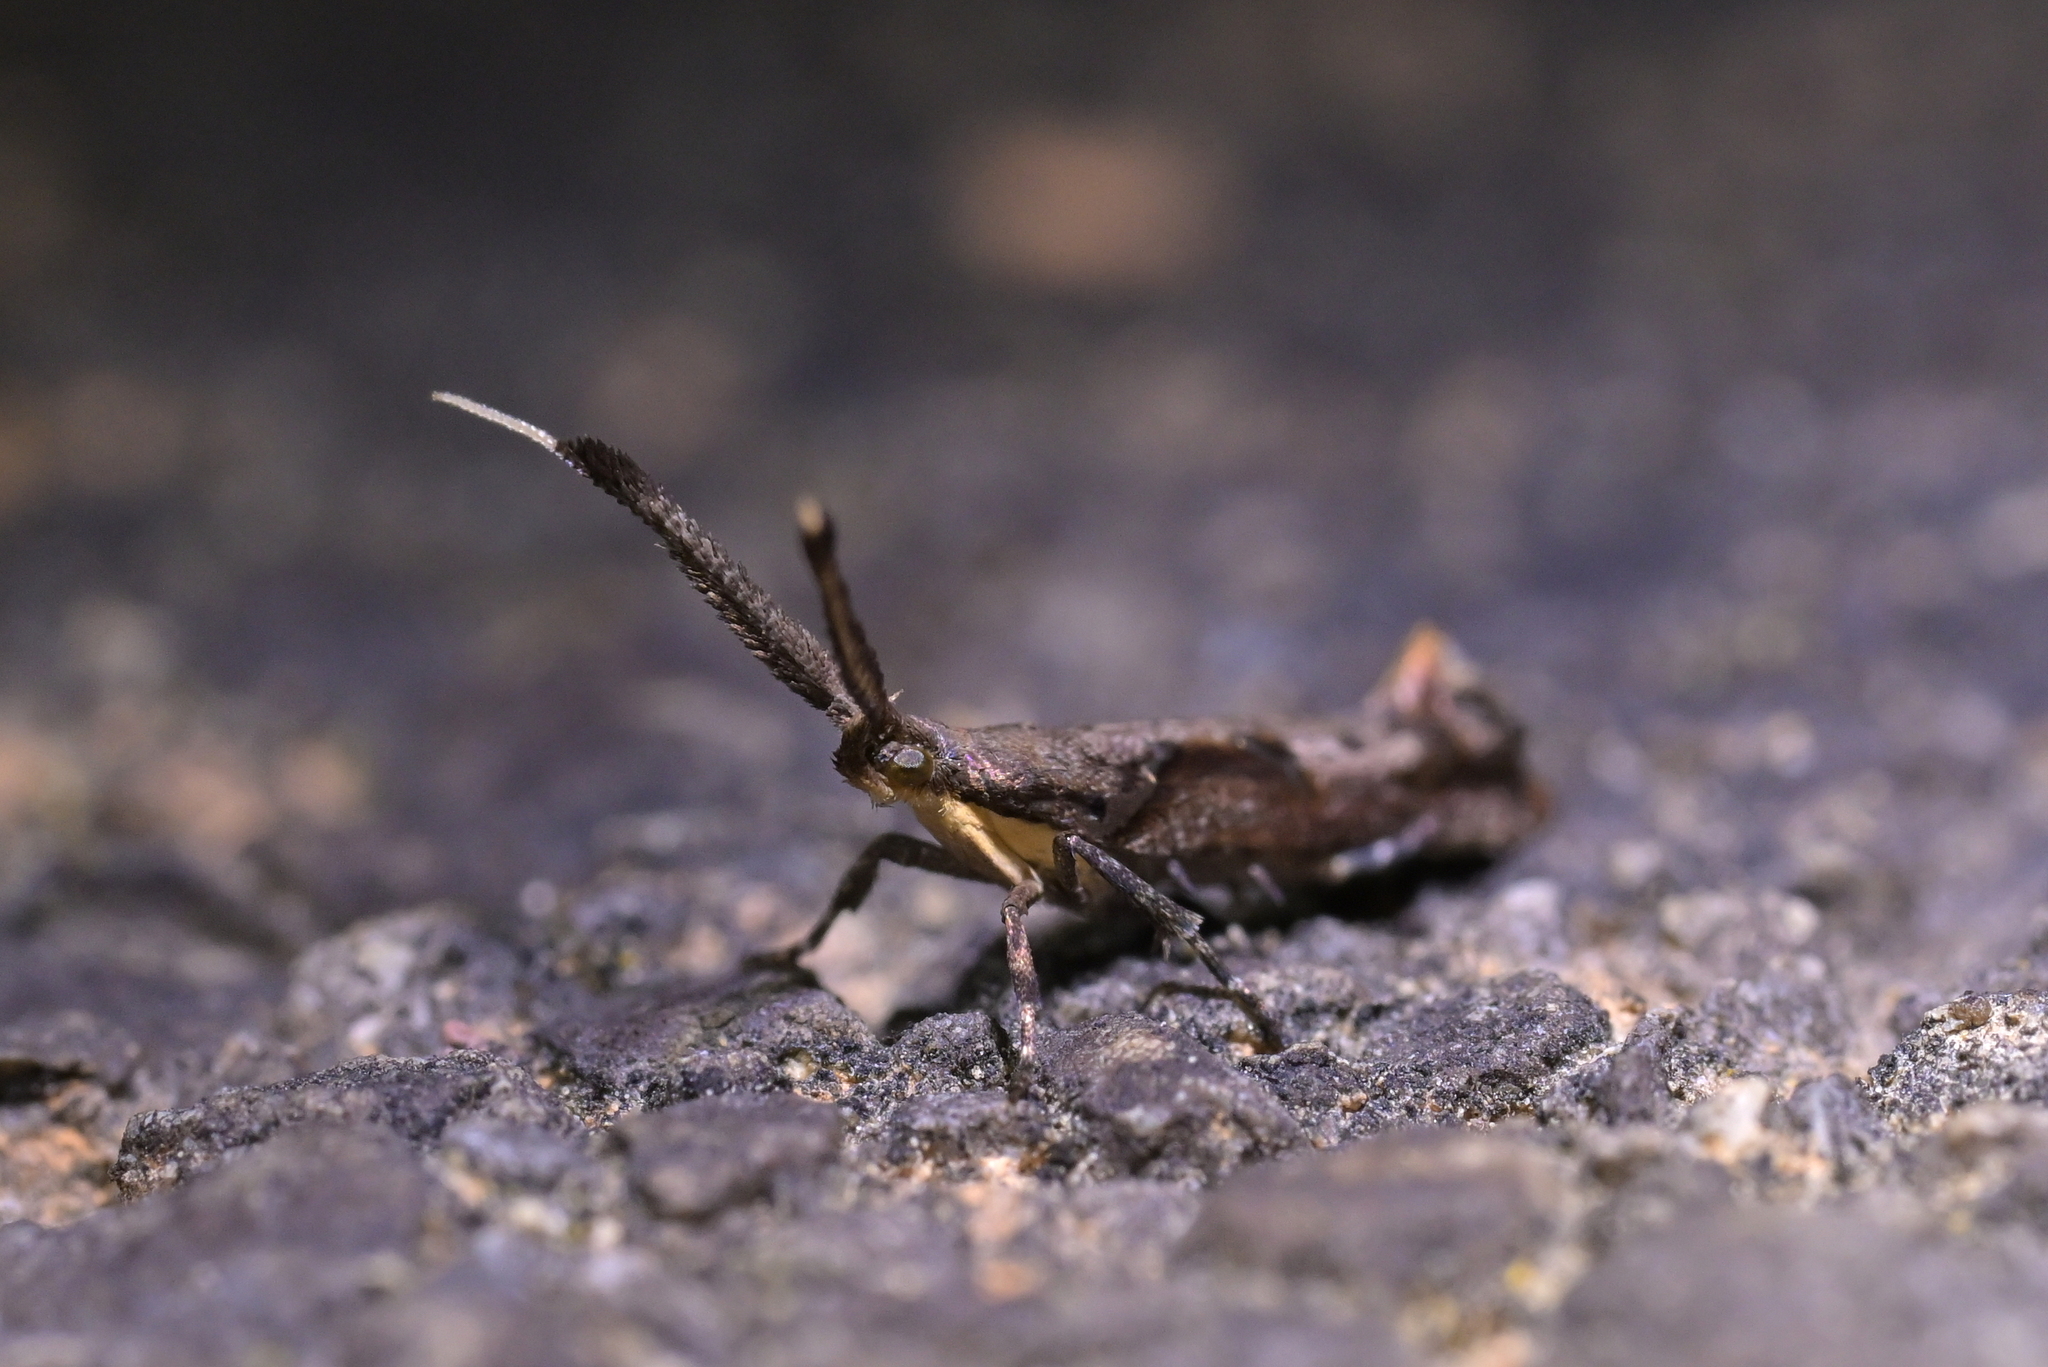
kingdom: Animalia
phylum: Arthropoda
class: Insecta
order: Lepidoptera
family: Plutellidae
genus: Protosynaema
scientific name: Protosynaema steropucha
